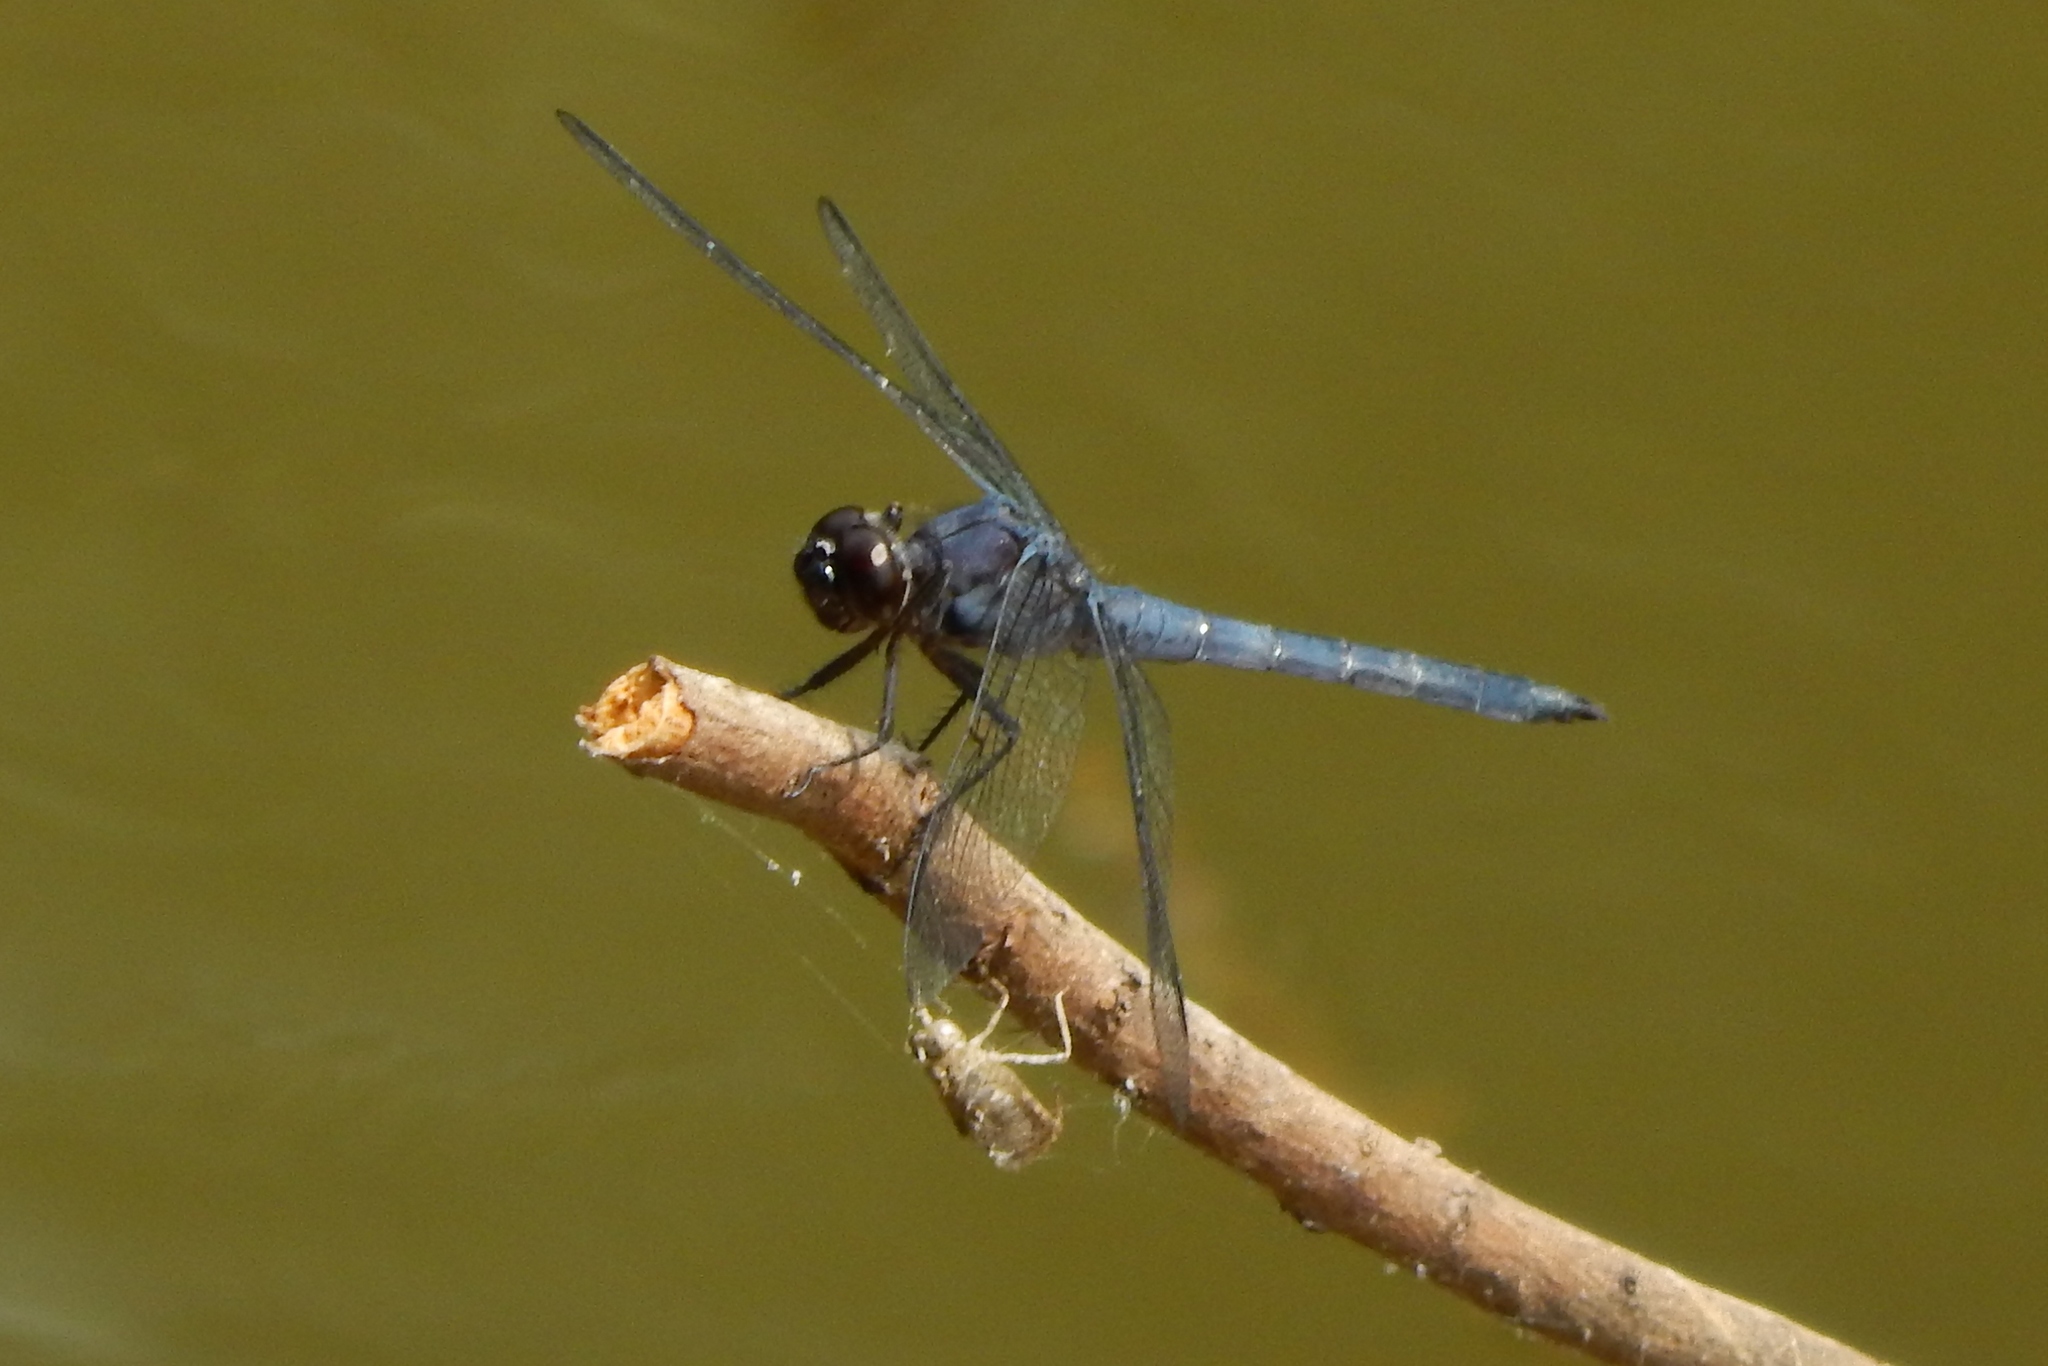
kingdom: Animalia
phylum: Arthropoda
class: Insecta
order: Odonata
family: Libellulidae
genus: Libellula
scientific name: Libellula incesta
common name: Slaty skimmer
